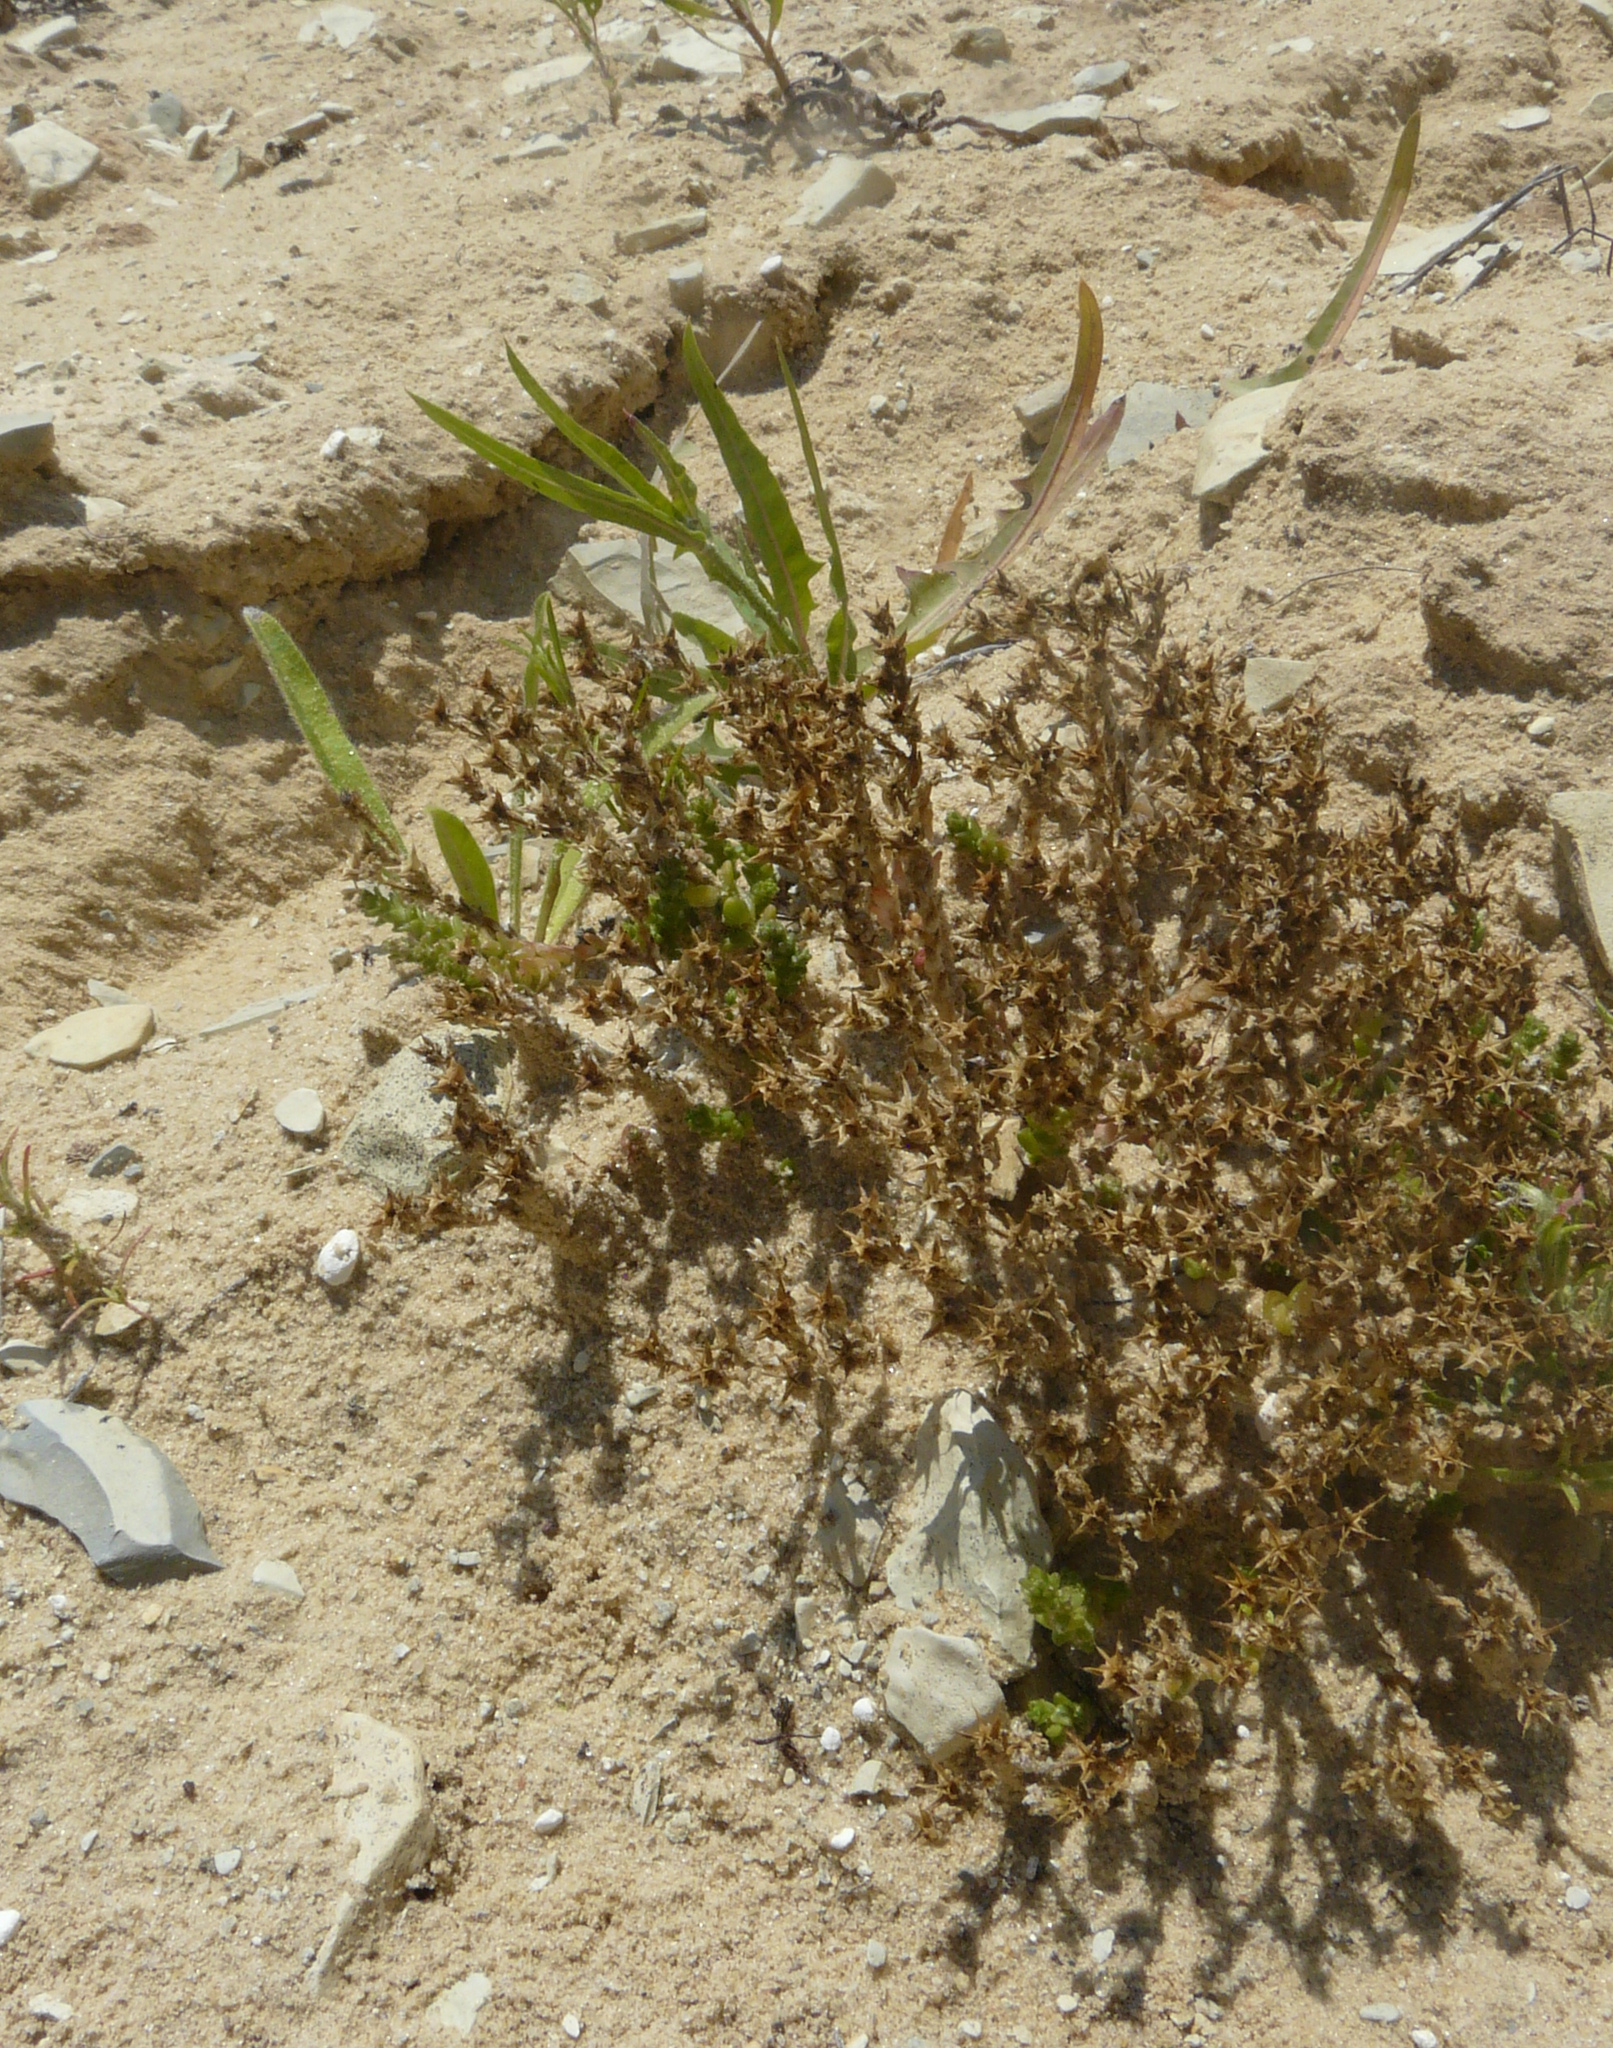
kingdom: Plantae
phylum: Tracheophyta
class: Magnoliopsida
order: Saxifragales
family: Crassulaceae
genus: Sedum
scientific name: Sedum acre
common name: Biting stonecrop
